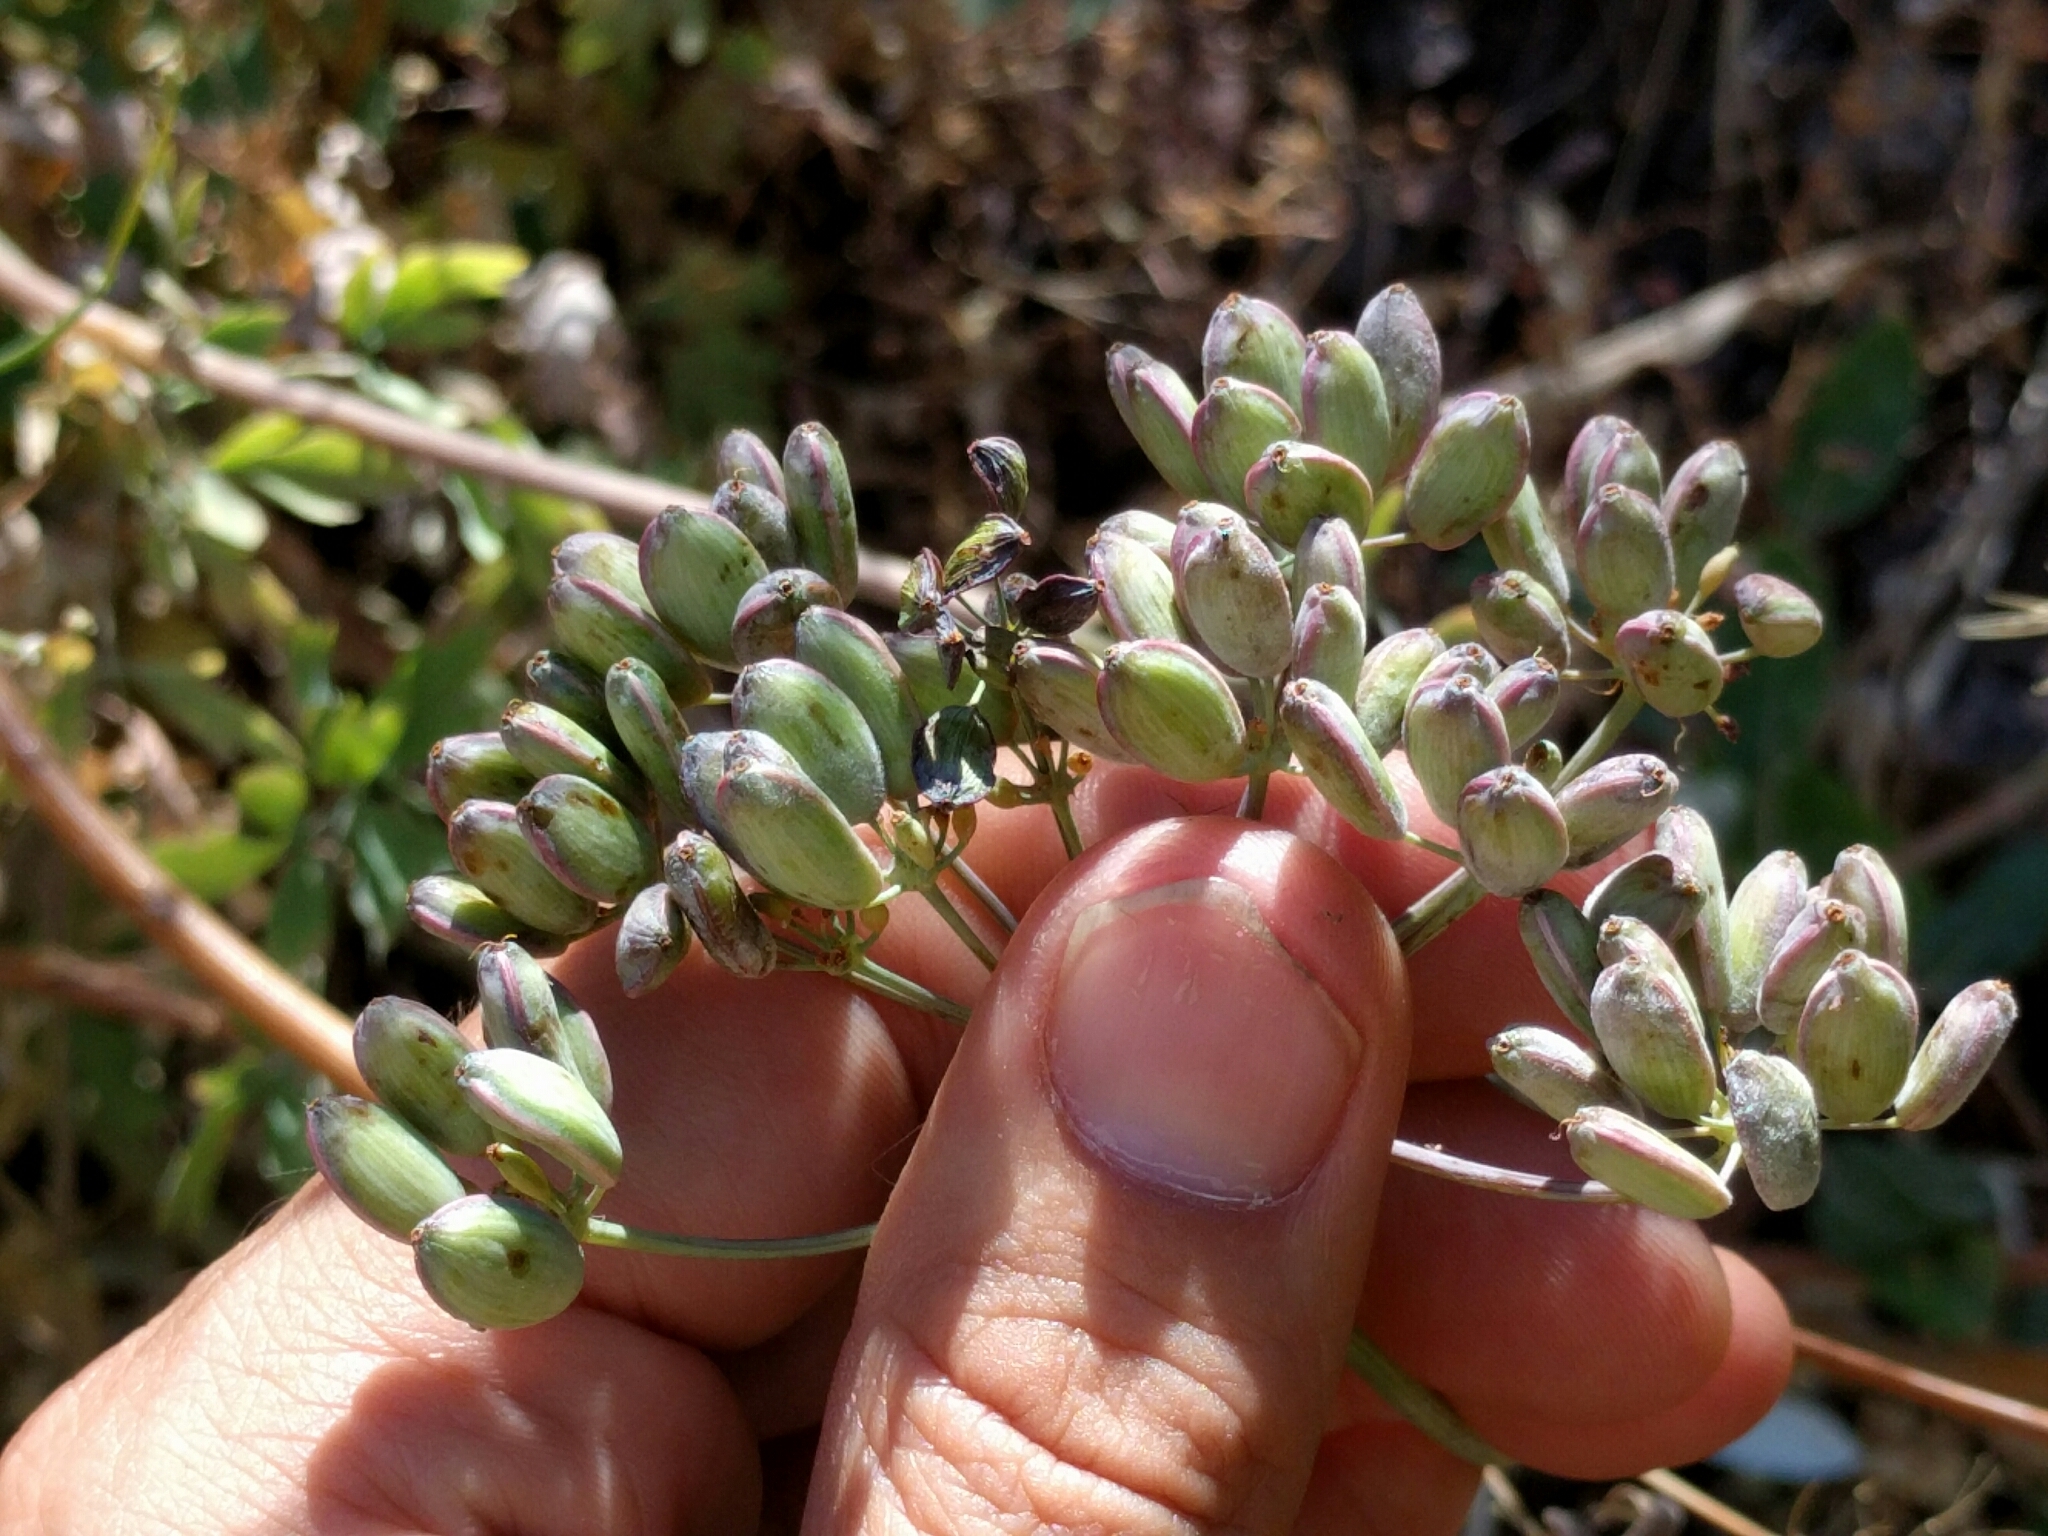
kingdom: Plantae
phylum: Tracheophyta
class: Magnoliopsida
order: Apiales
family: Apiaceae
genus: Lomatium
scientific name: Lomatium californicum
